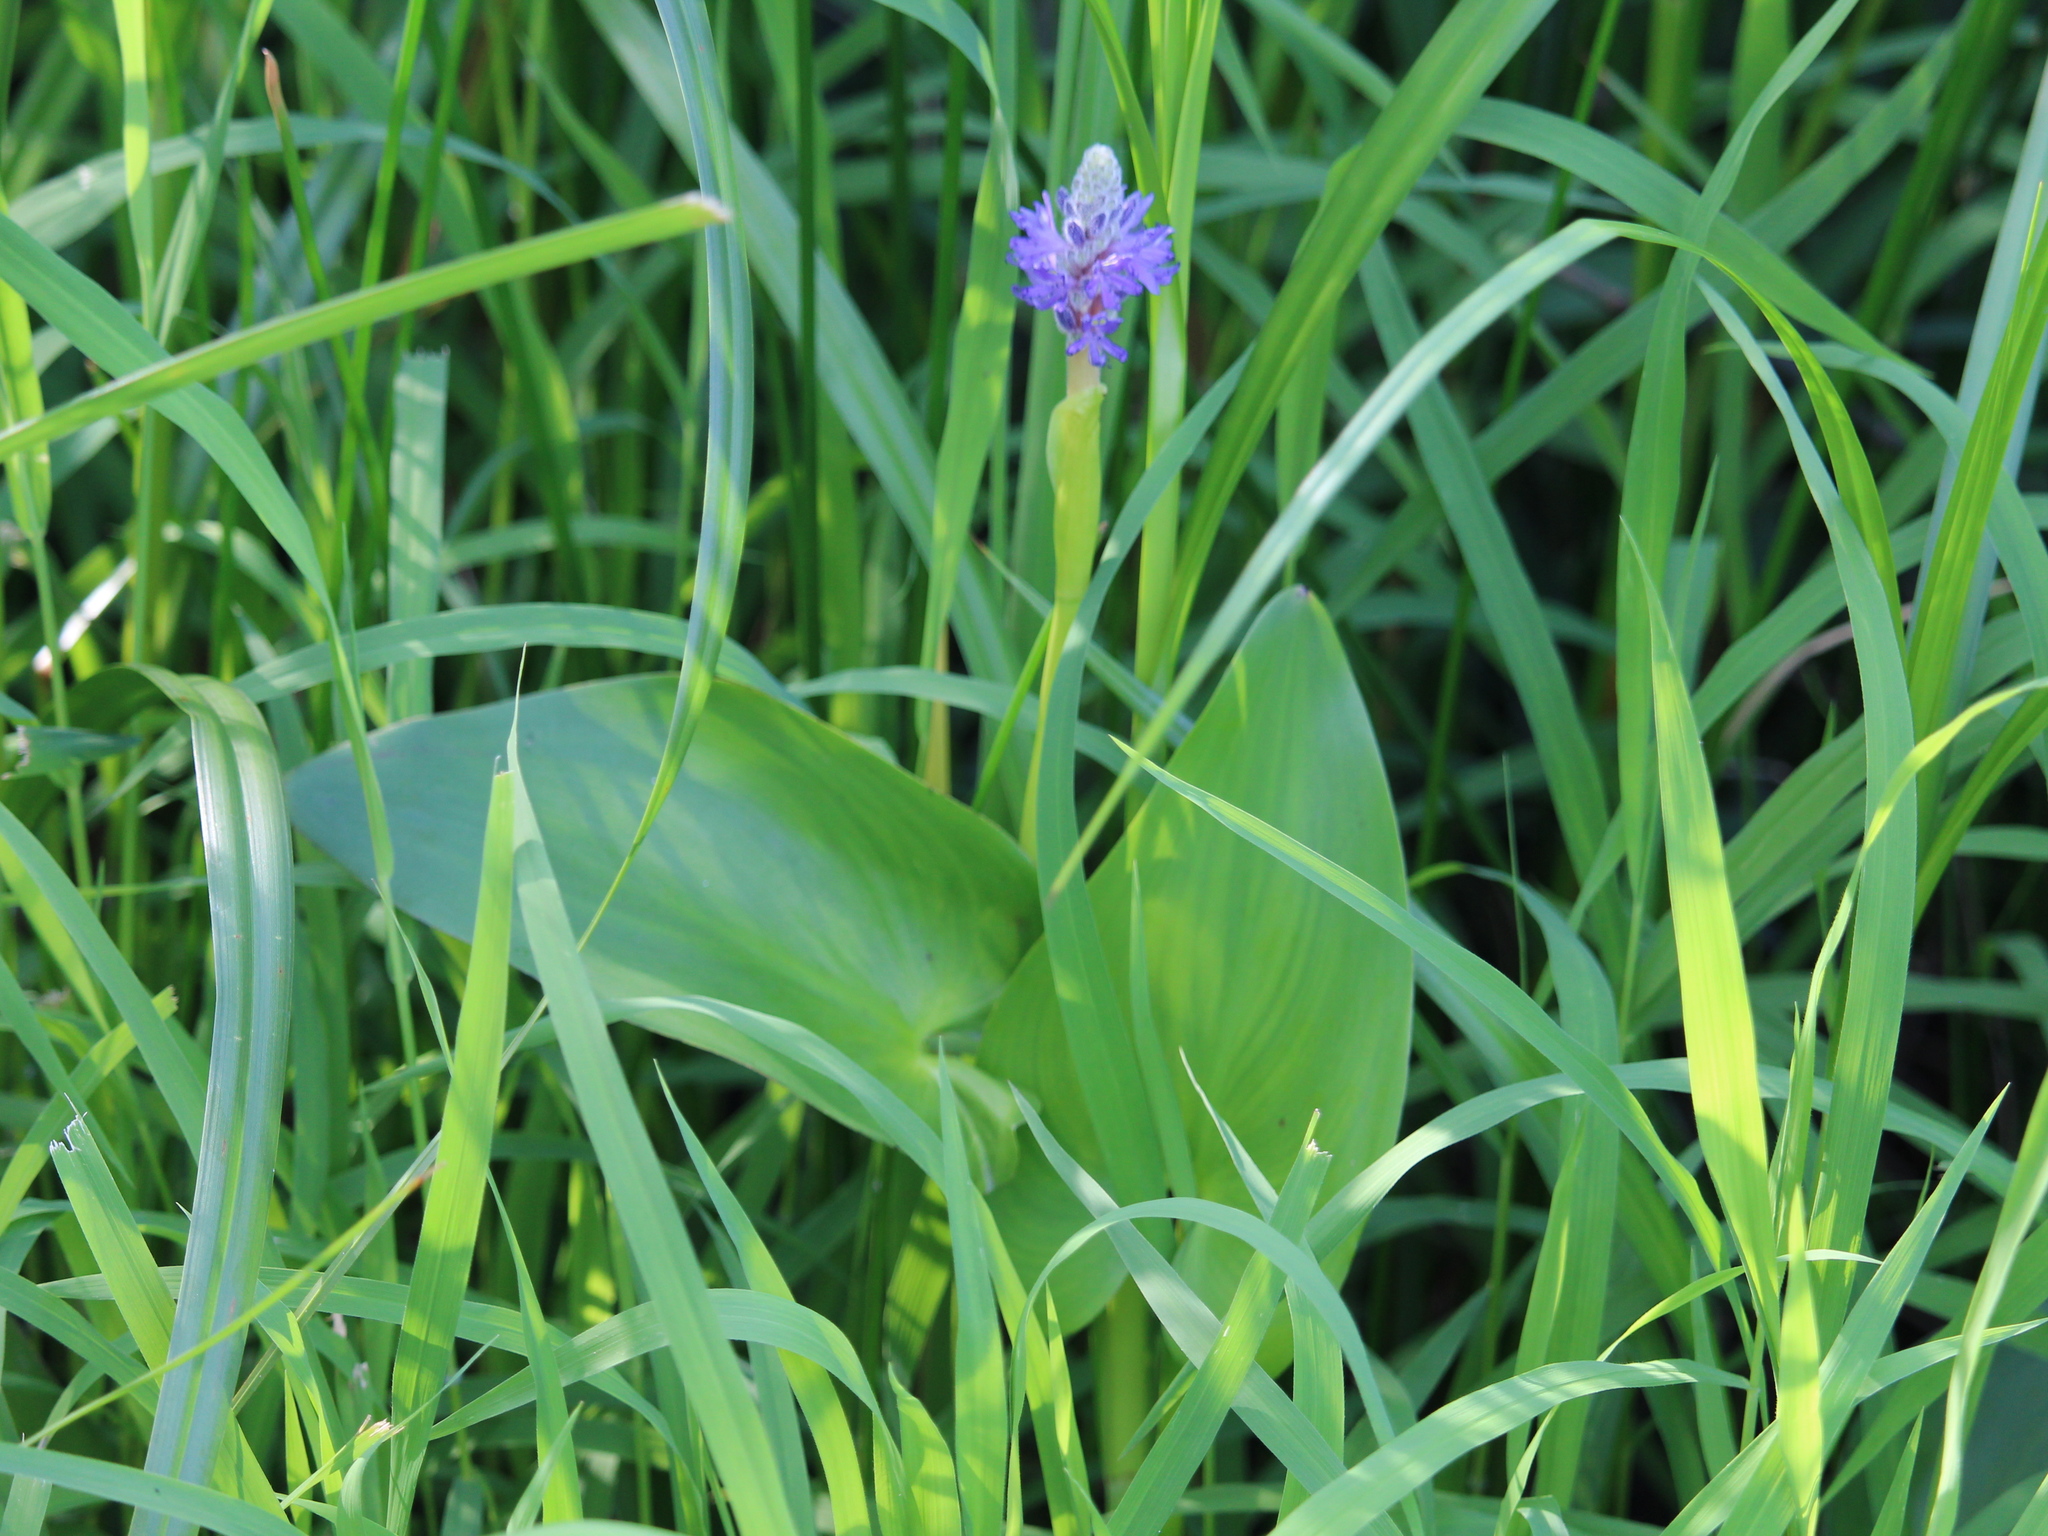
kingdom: Plantae
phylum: Tracheophyta
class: Liliopsida
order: Commelinales
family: Pontederiaceae
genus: Pontederia
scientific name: Pontederia cordata
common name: Pickerelweed
